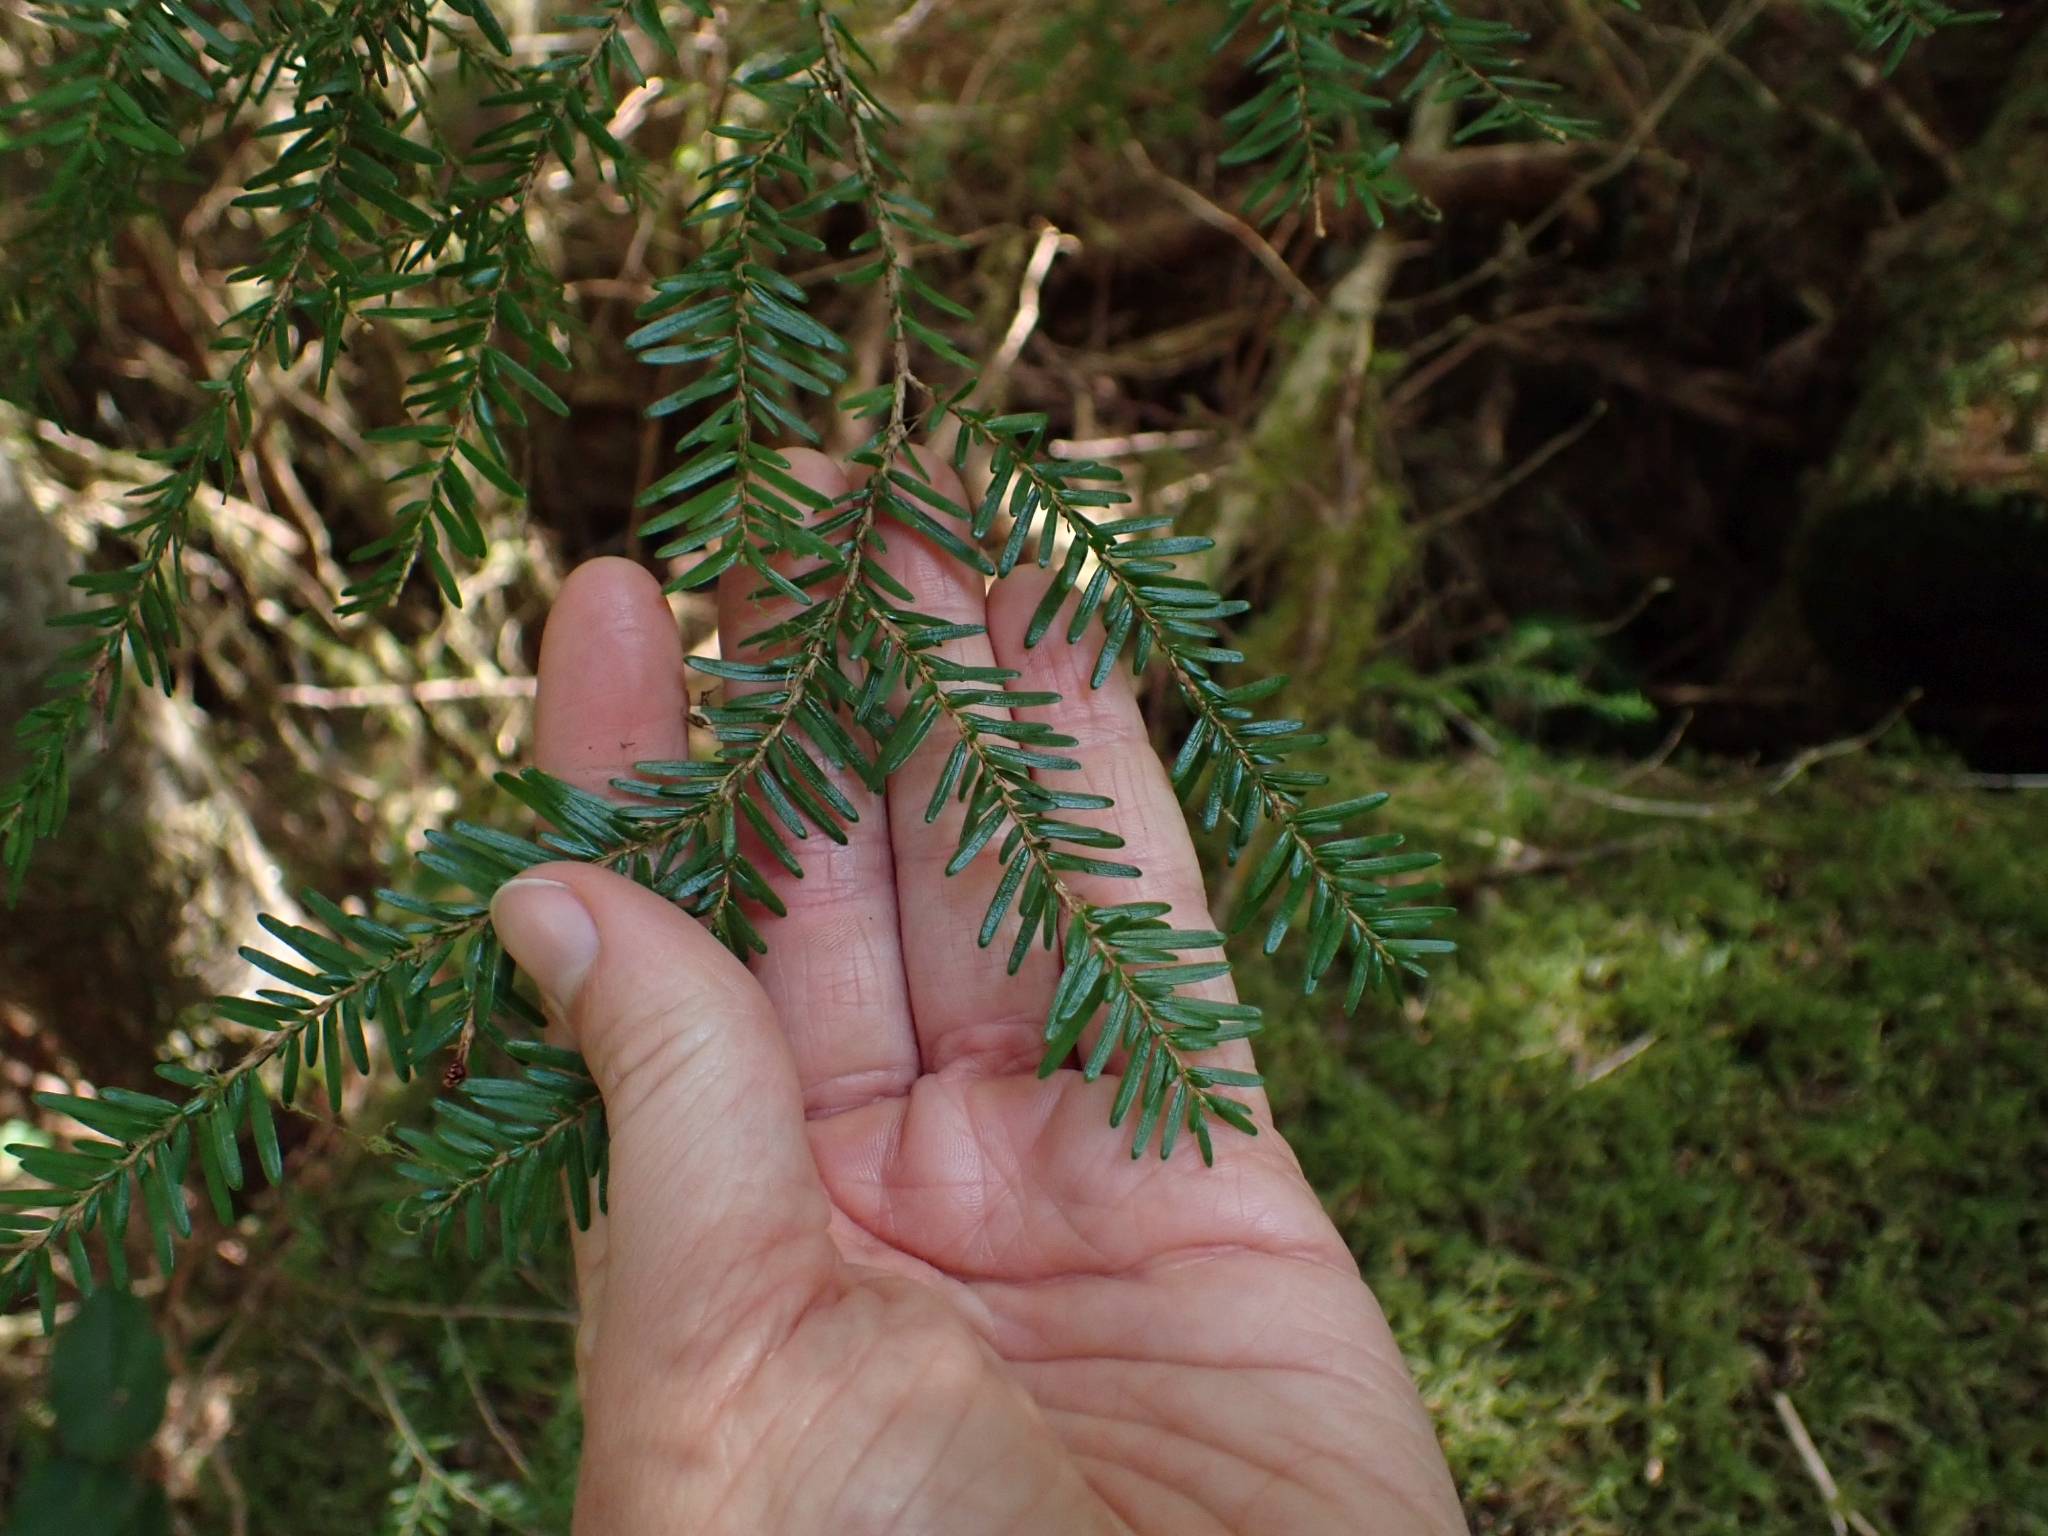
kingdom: Plantae
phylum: Tracheophyta
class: Pinopsida
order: Pinales
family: Pinaceae
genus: Tsuga
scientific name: Tsuga heterophylla
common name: Western hemlock
